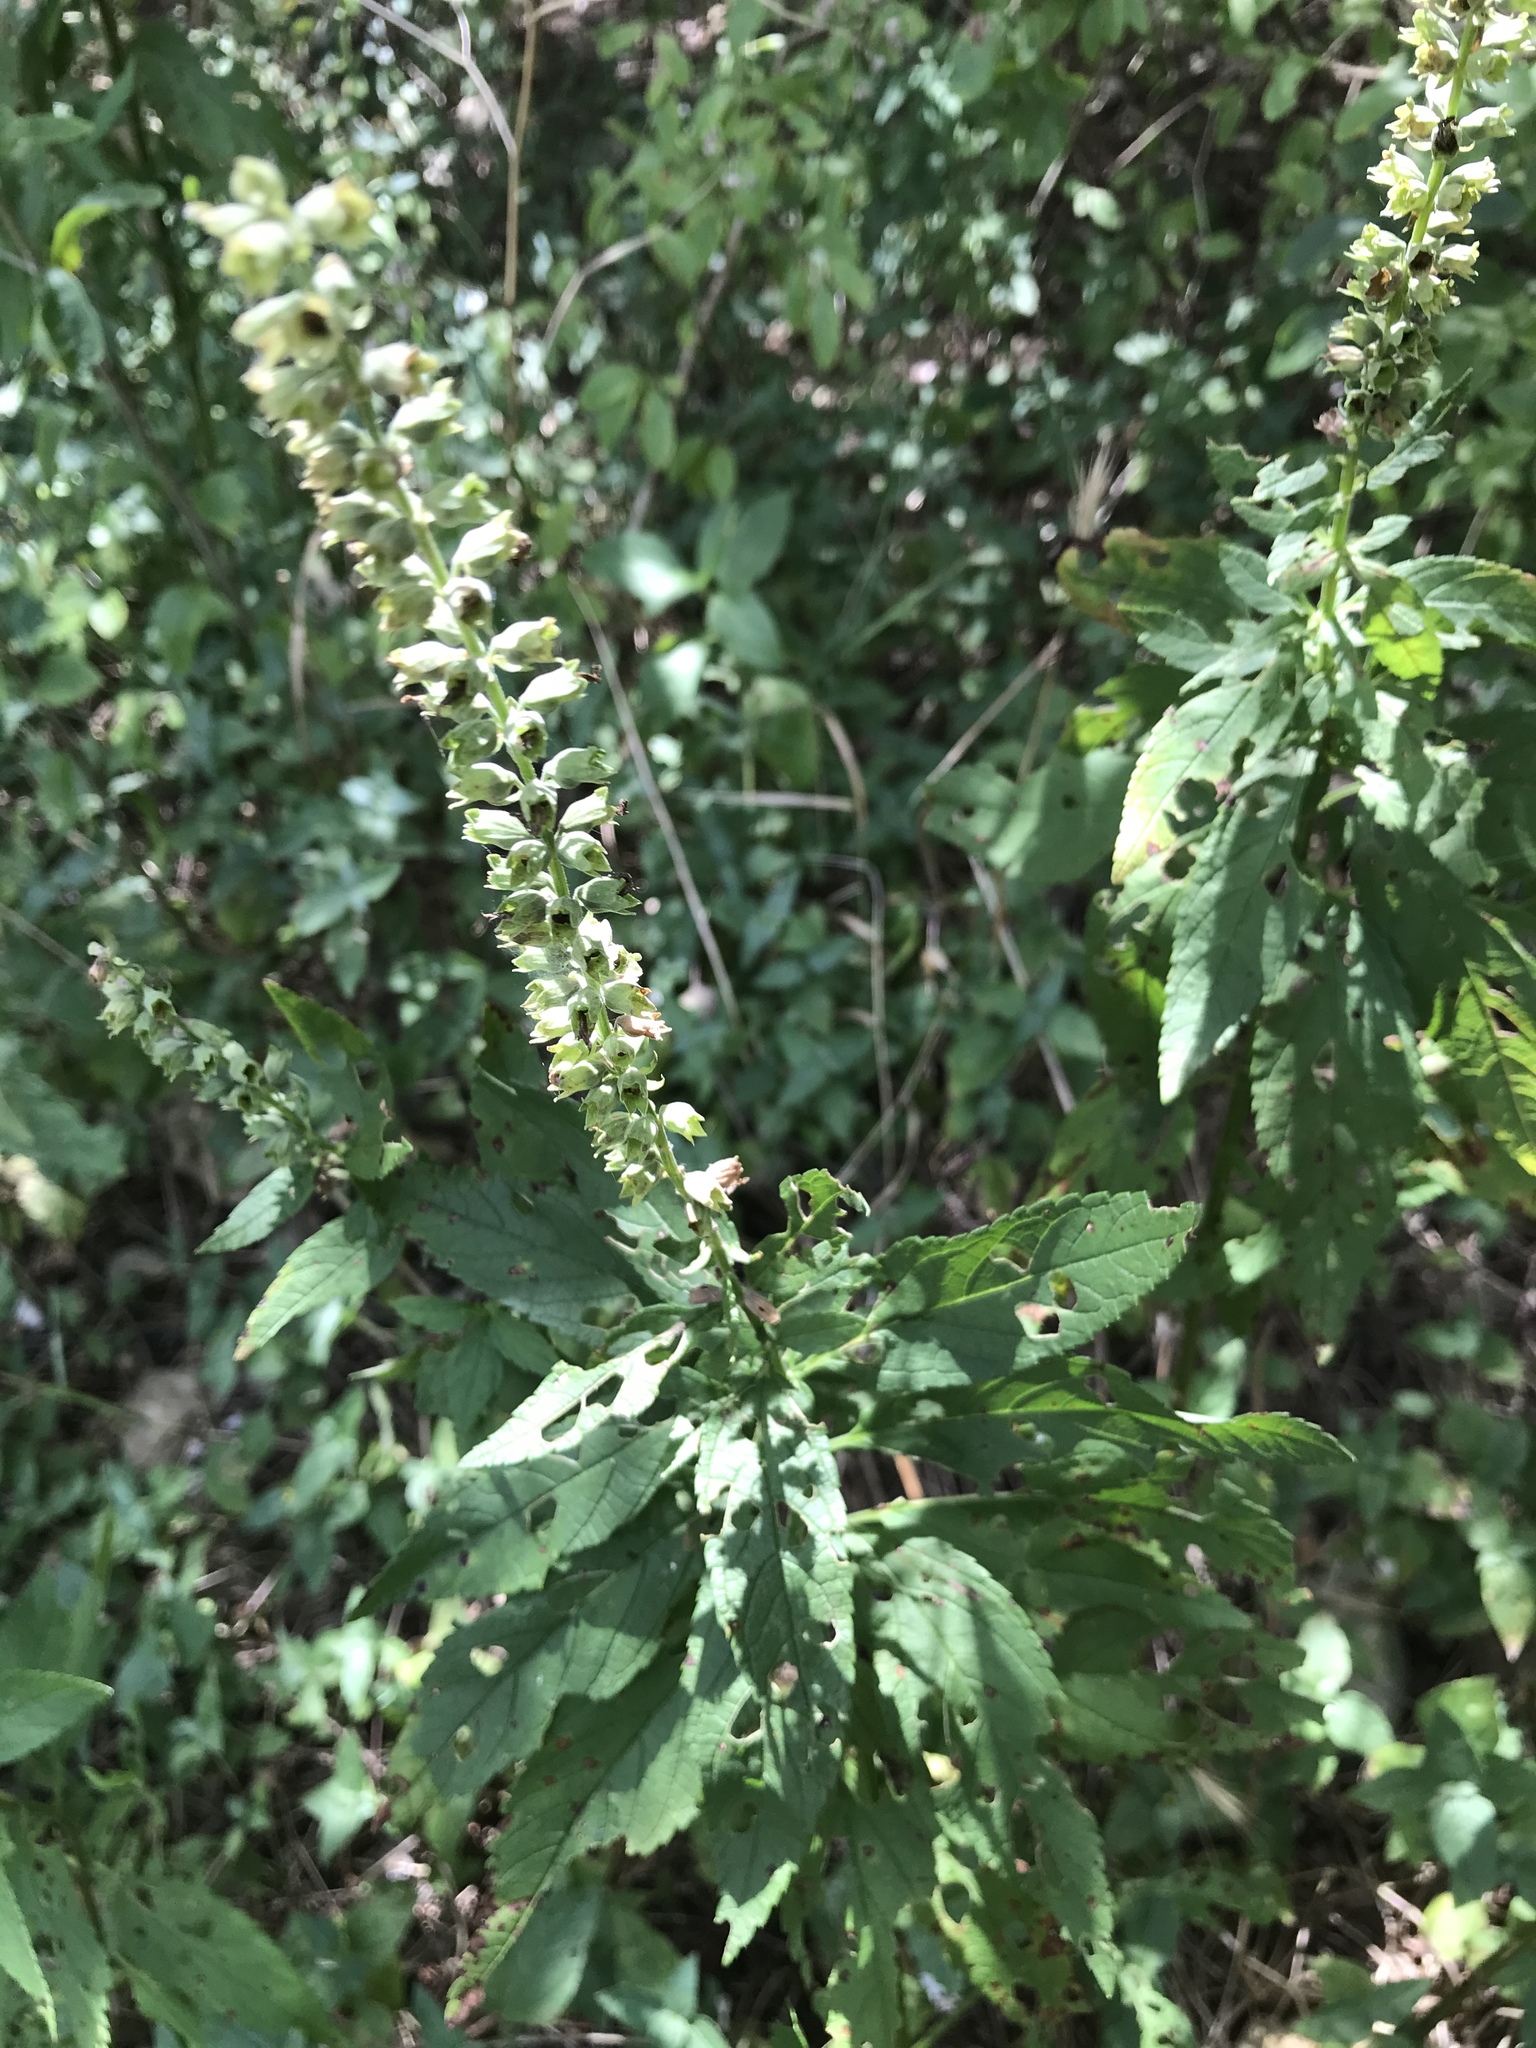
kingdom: Plantae
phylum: Tracheophyta
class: Magnoliopsida
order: Lamiales
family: Lamiaceae
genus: Teucrium
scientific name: Teucrium canadense
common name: American germander
